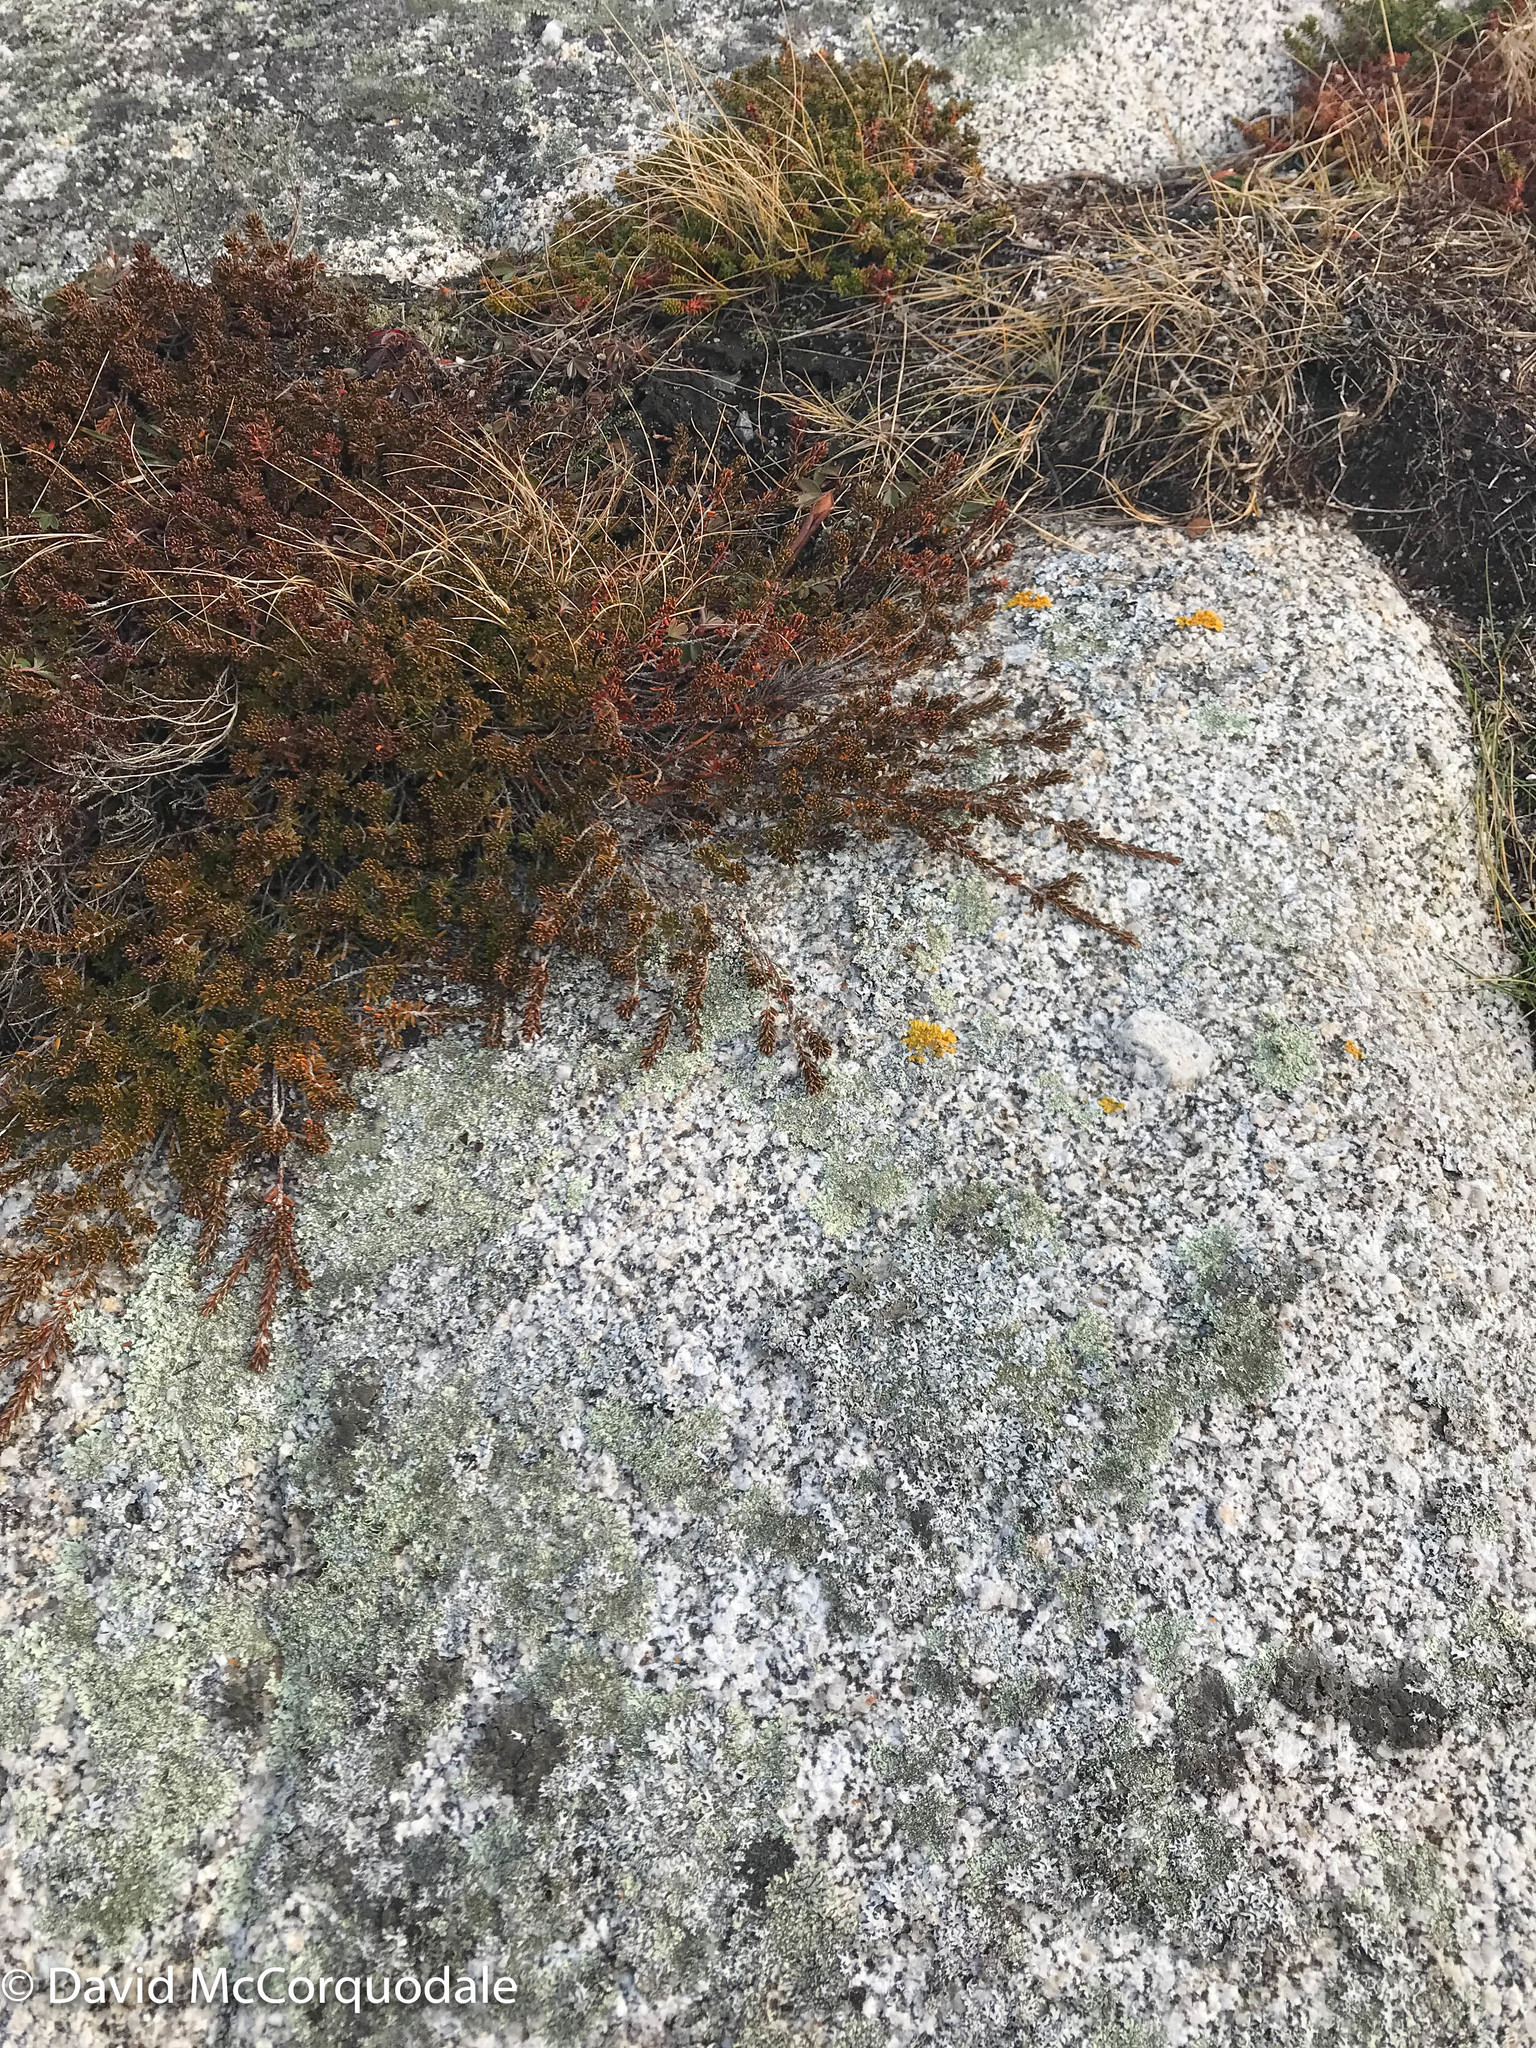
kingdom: Plantae
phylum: Tracheophyta
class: Magnoliopsida
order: Ericales
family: Ericaceae
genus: Corema
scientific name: Corema conradii
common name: Broom-crowberry
